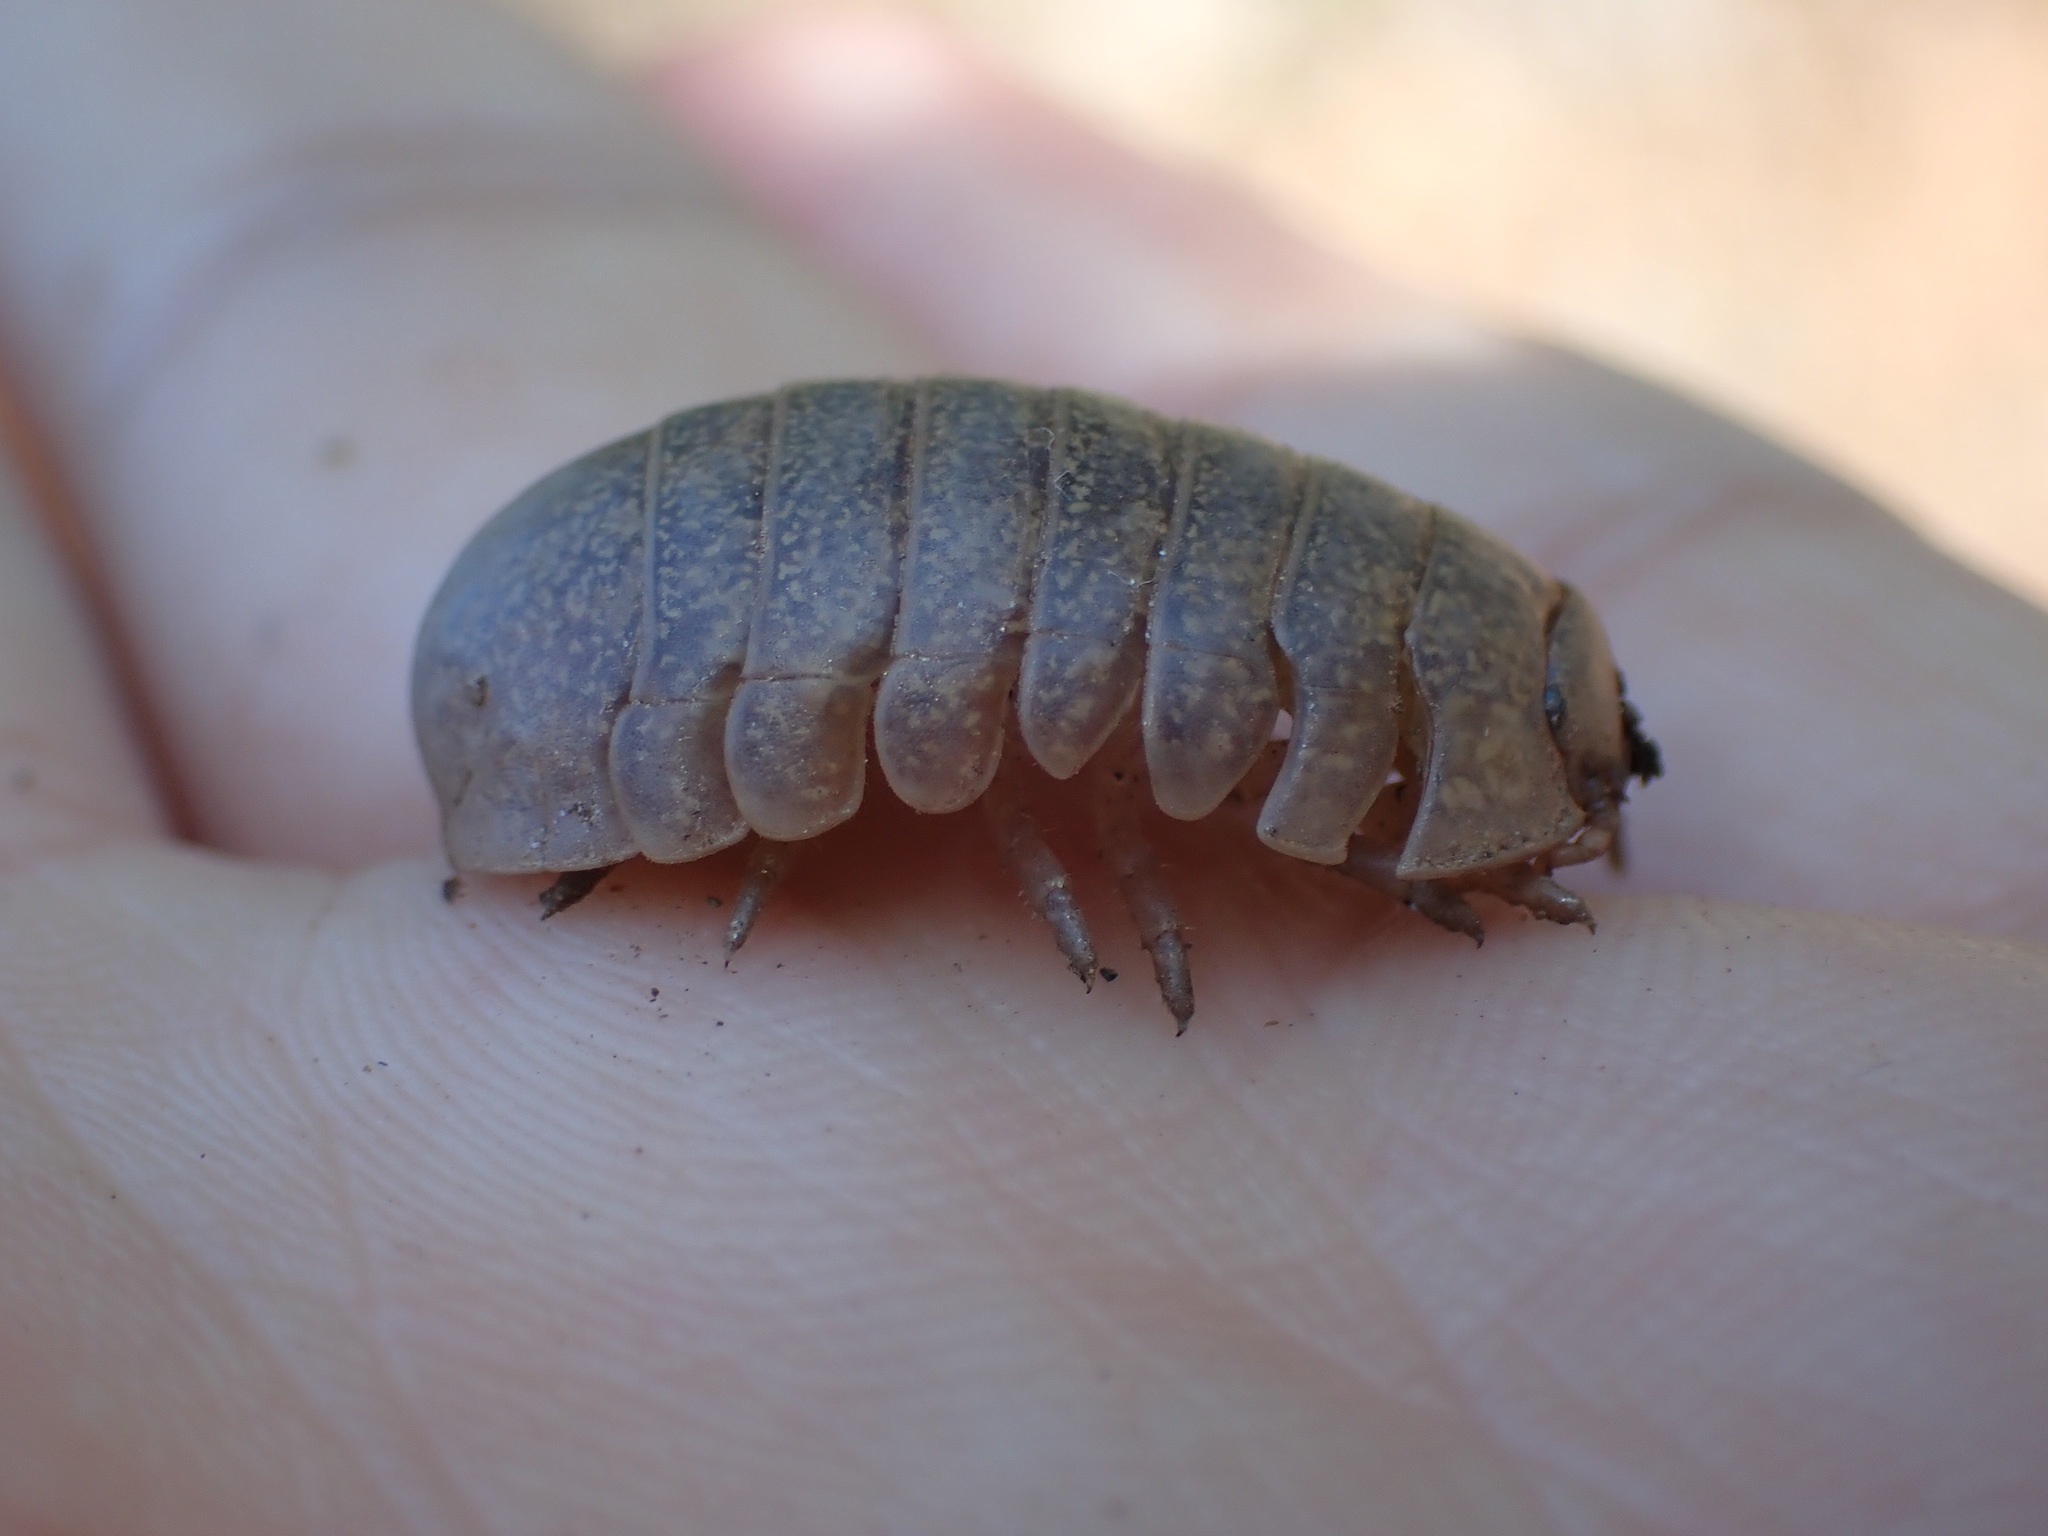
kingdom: Animalia
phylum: Arthropoda
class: Malacostraca
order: Isopoda
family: Tylidae
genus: Helleria
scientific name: Helleria brevicornis
